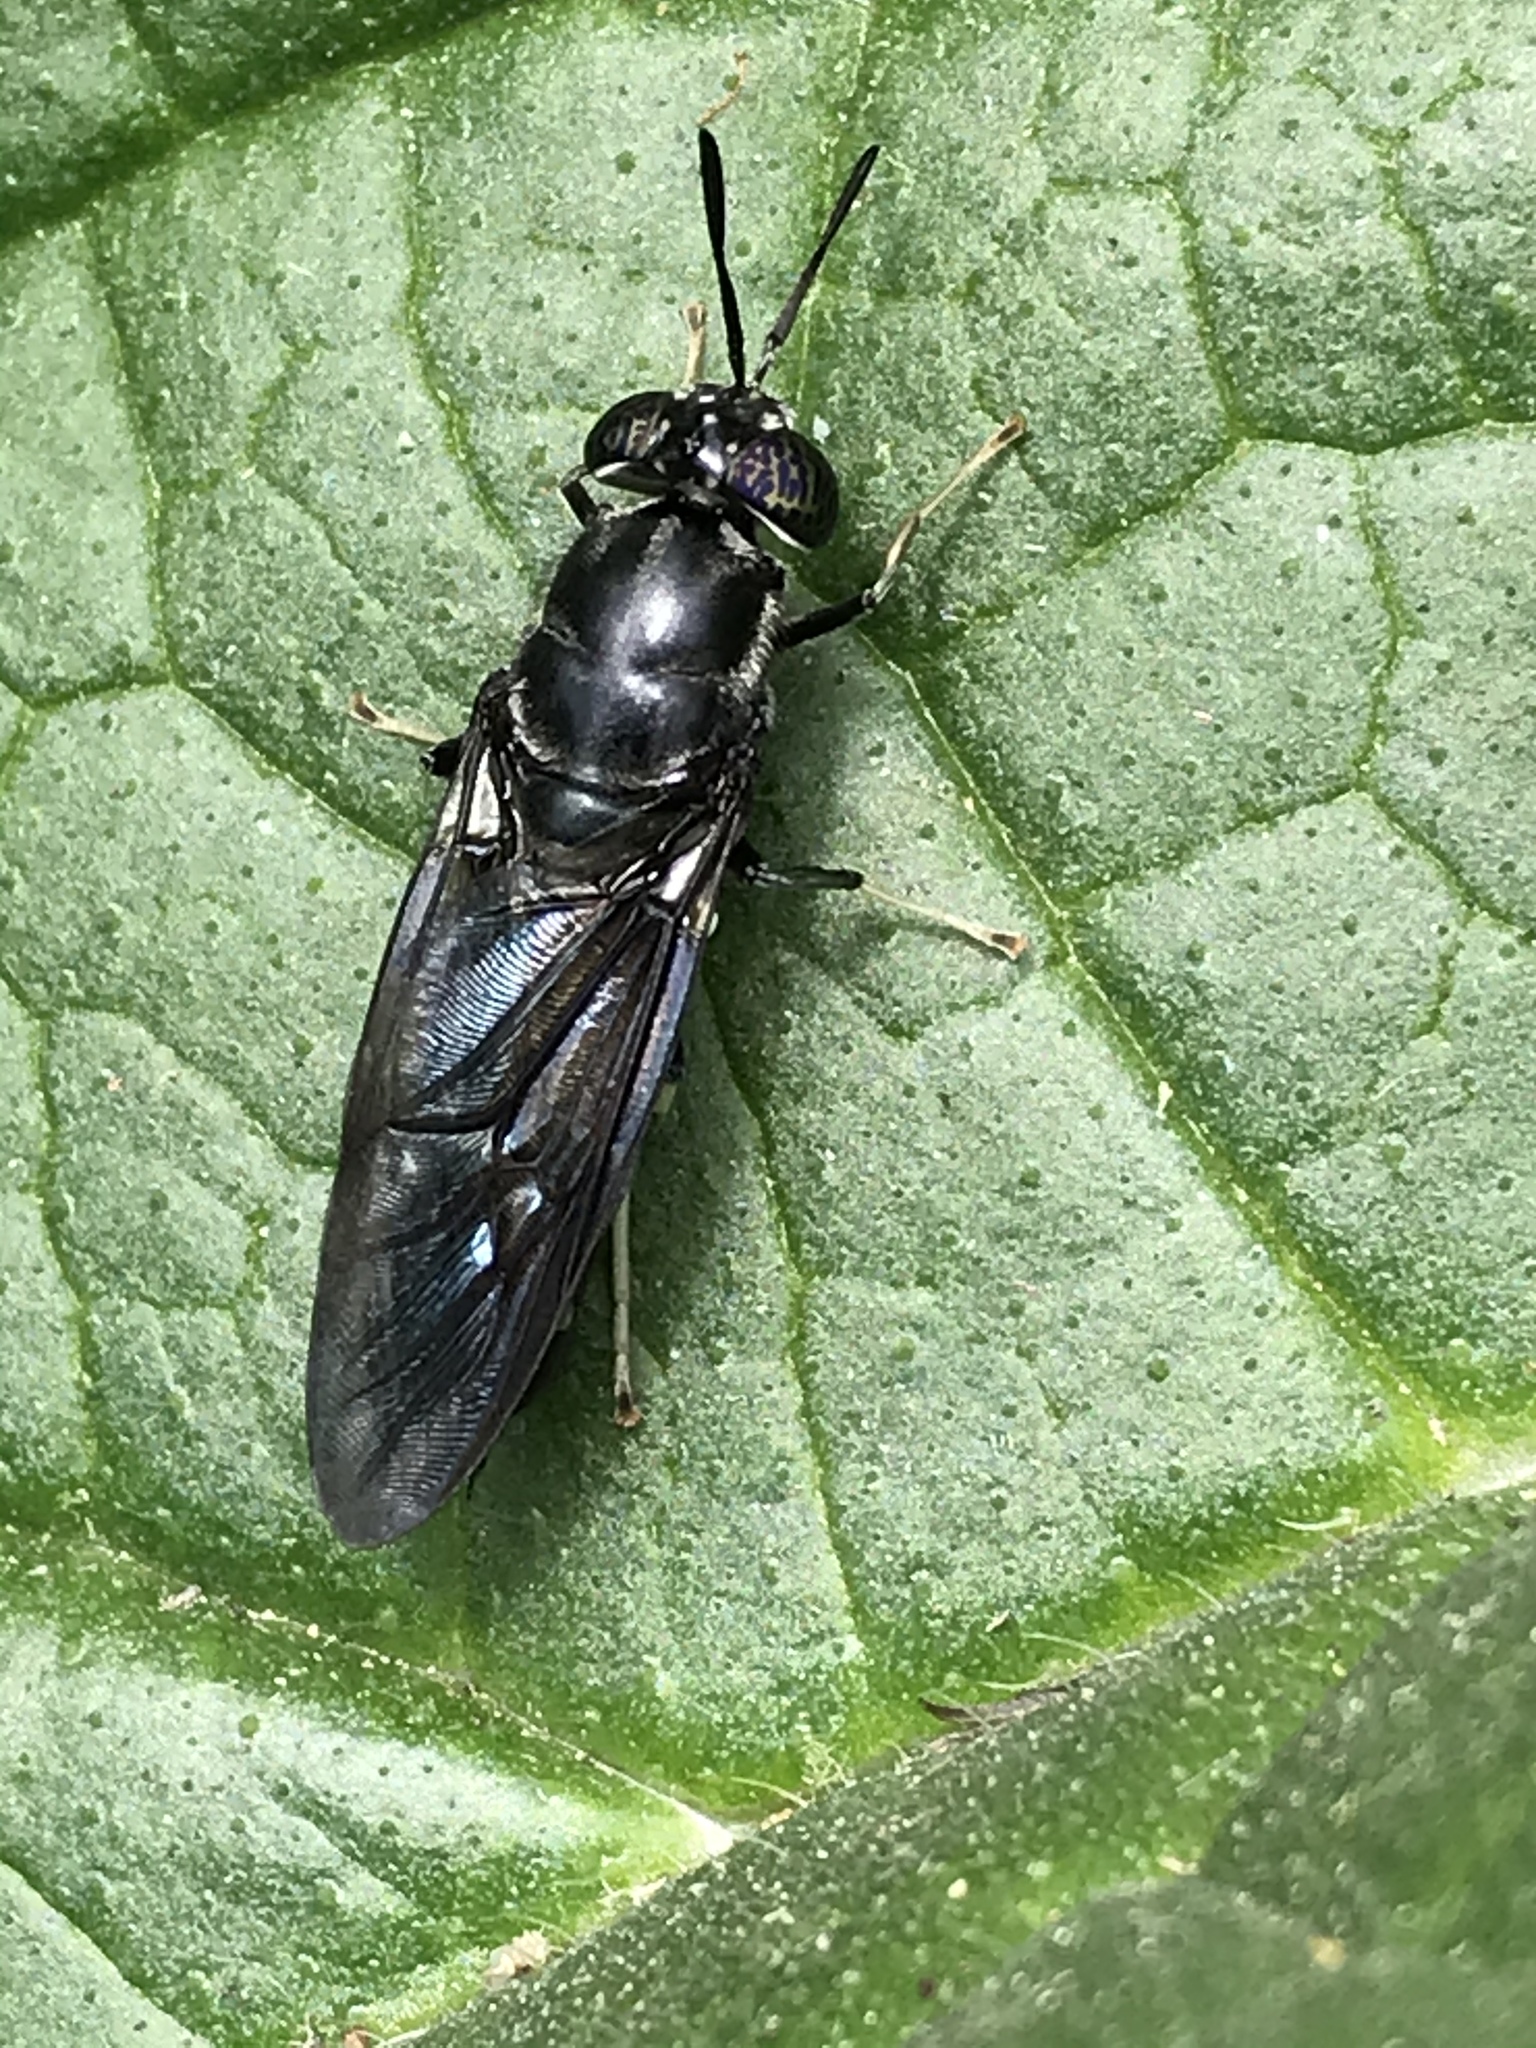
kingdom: Animalia
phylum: Arthropoda
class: Insecta
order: Diptera
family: Stratiomyidae
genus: Hermetia
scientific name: Hermetia illucens
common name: Black soldier fly
